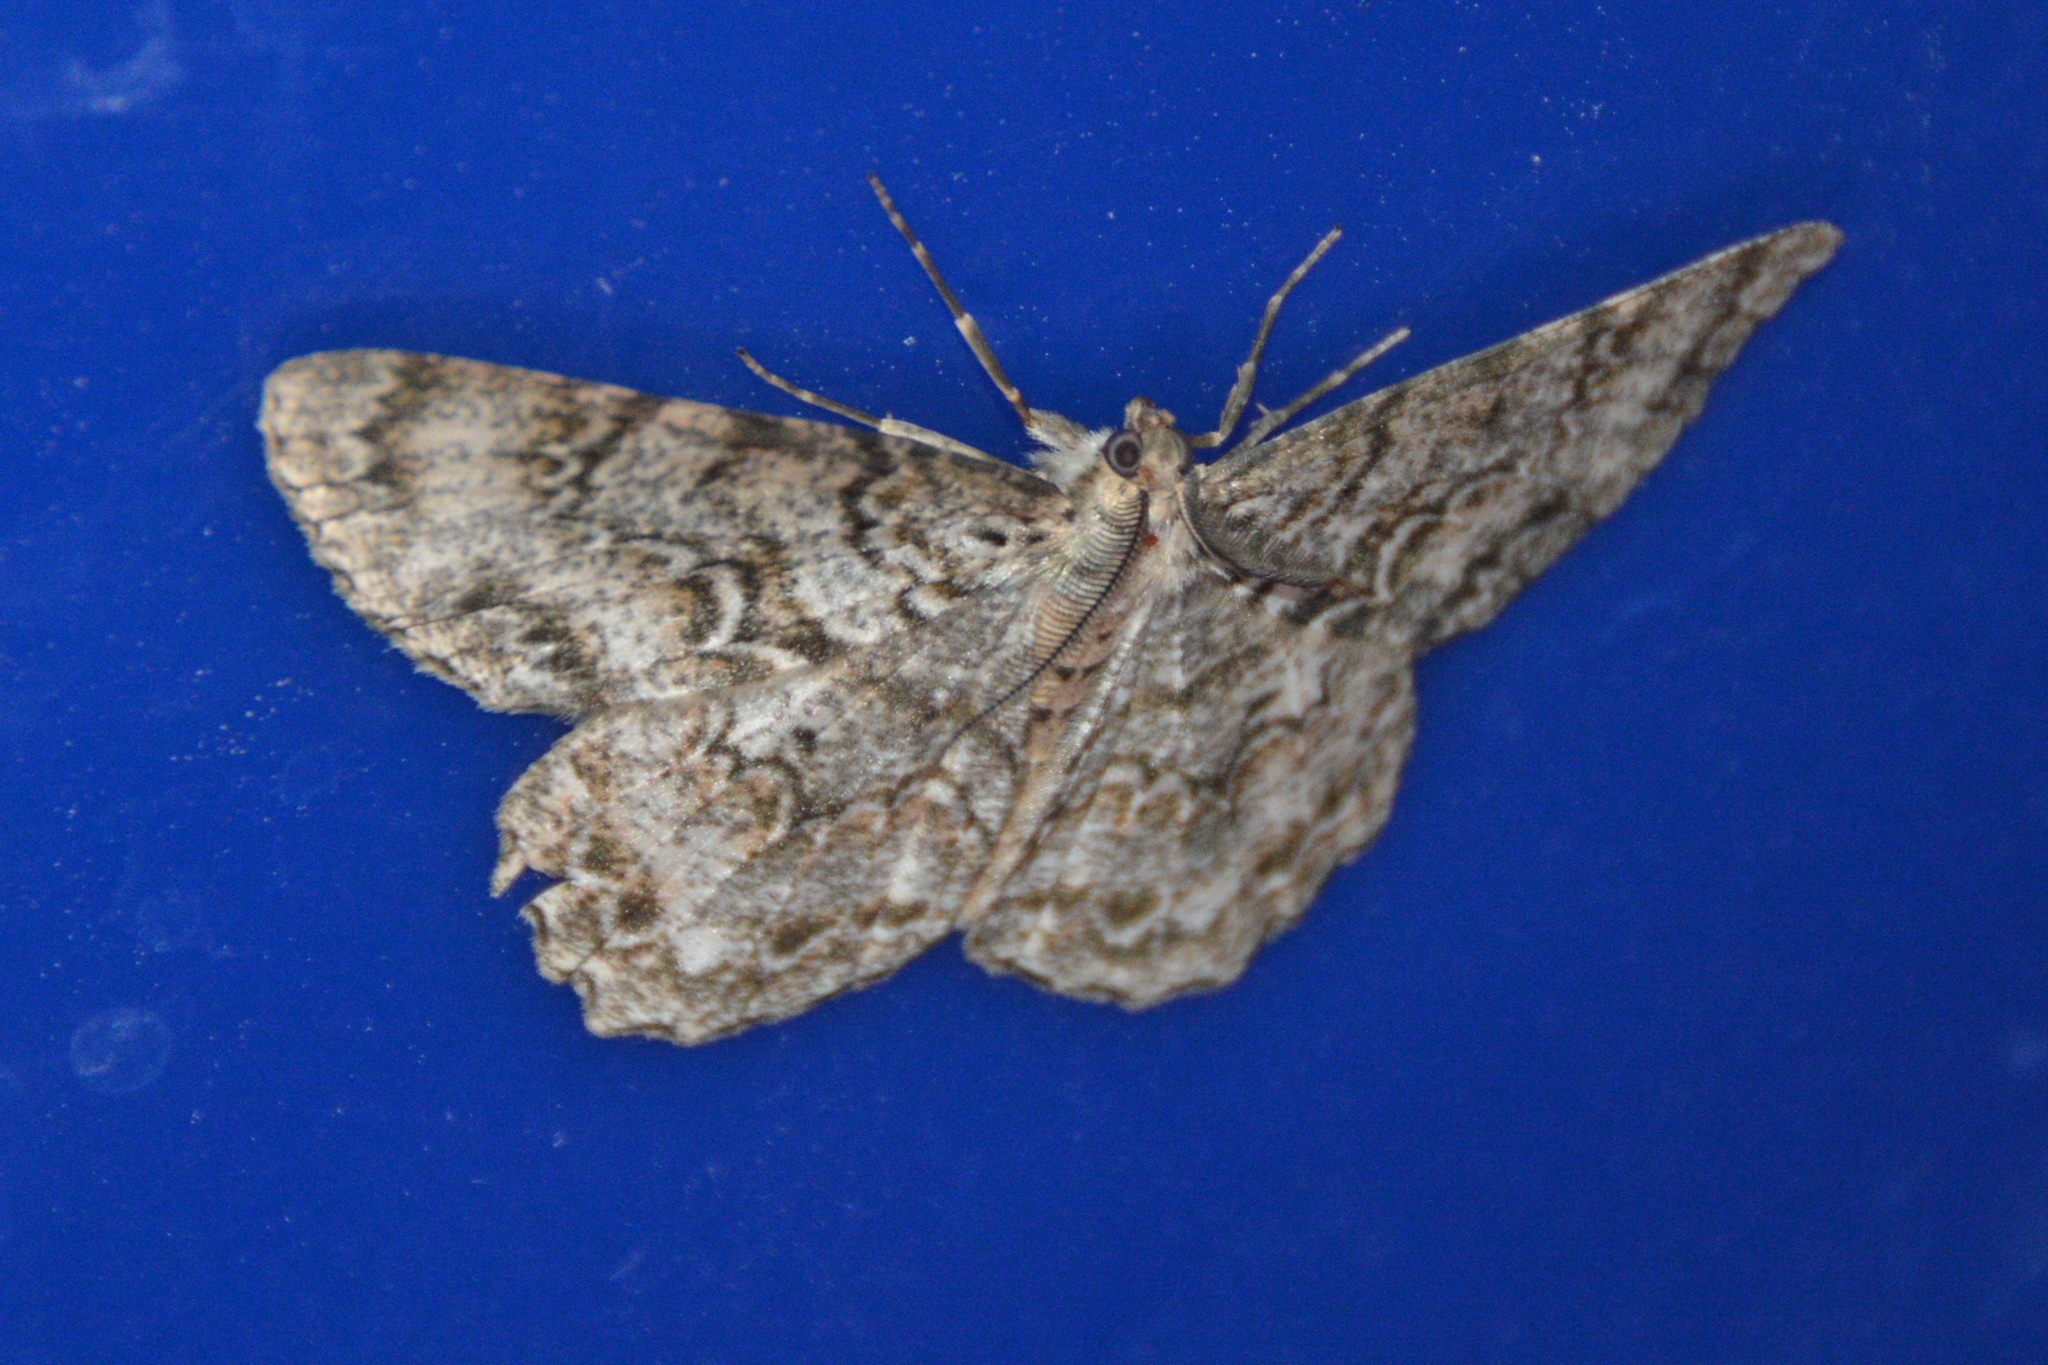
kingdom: Animalia
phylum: Arthropoda
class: Insecta
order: Lepidoptera
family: Geometridae
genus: Epimecis
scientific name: Epimecis hortaria
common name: Tulip-tree beauty
